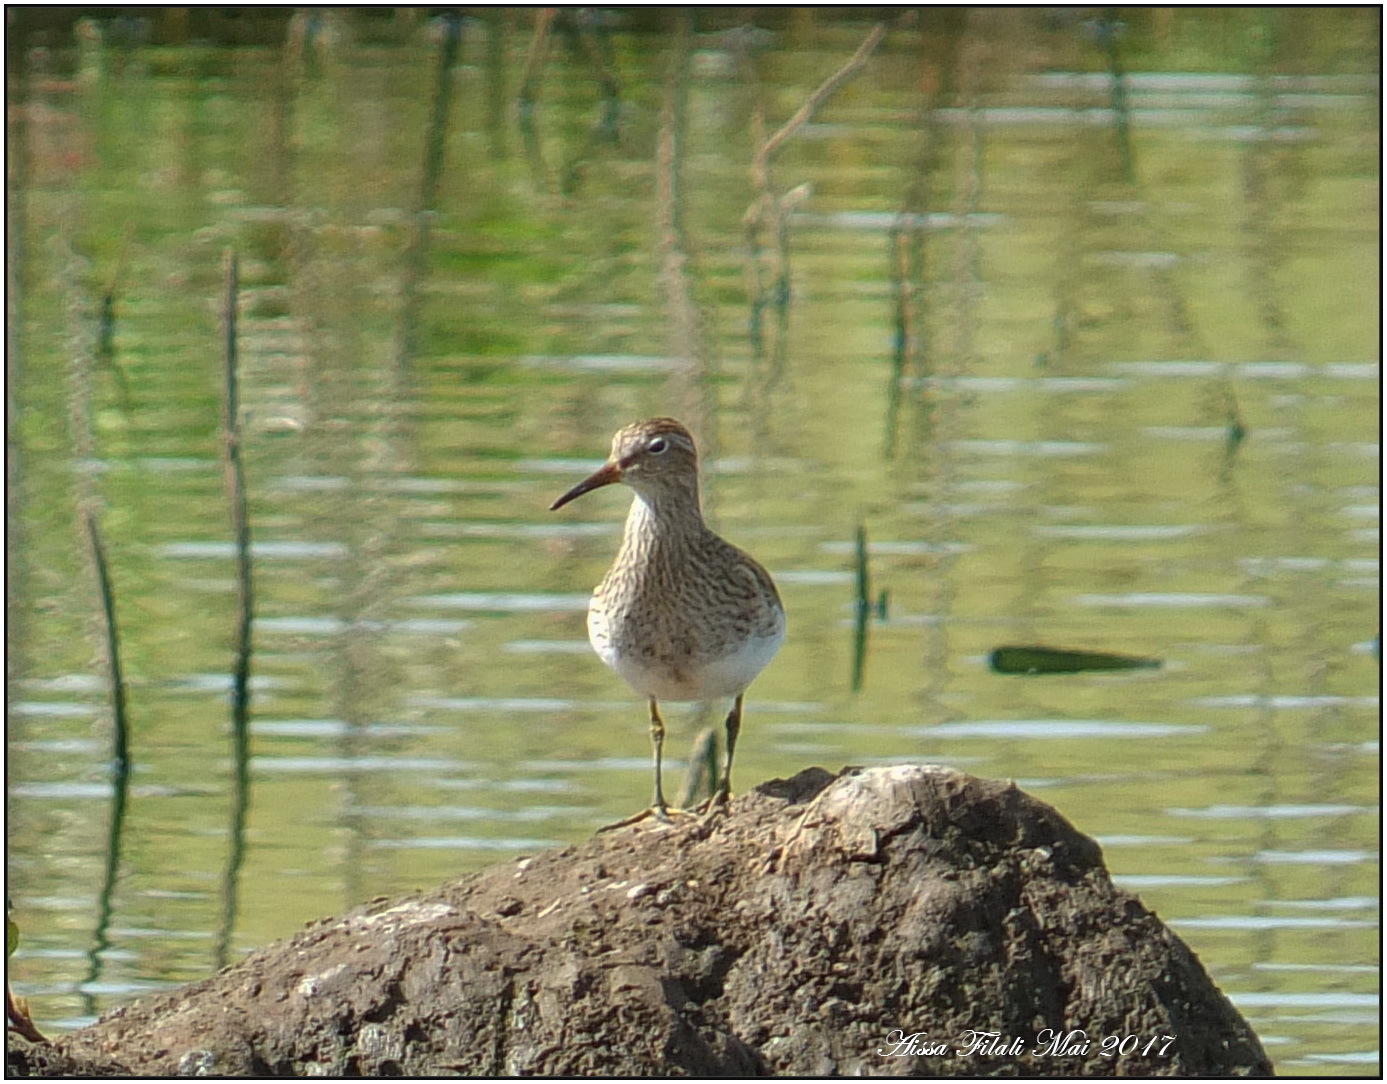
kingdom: Animalia
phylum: Chordata
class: Aves
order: Charadriiformes
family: Scolopacidae
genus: Calidris
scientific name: Calidris melanotos
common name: Pectoral sandpiper
